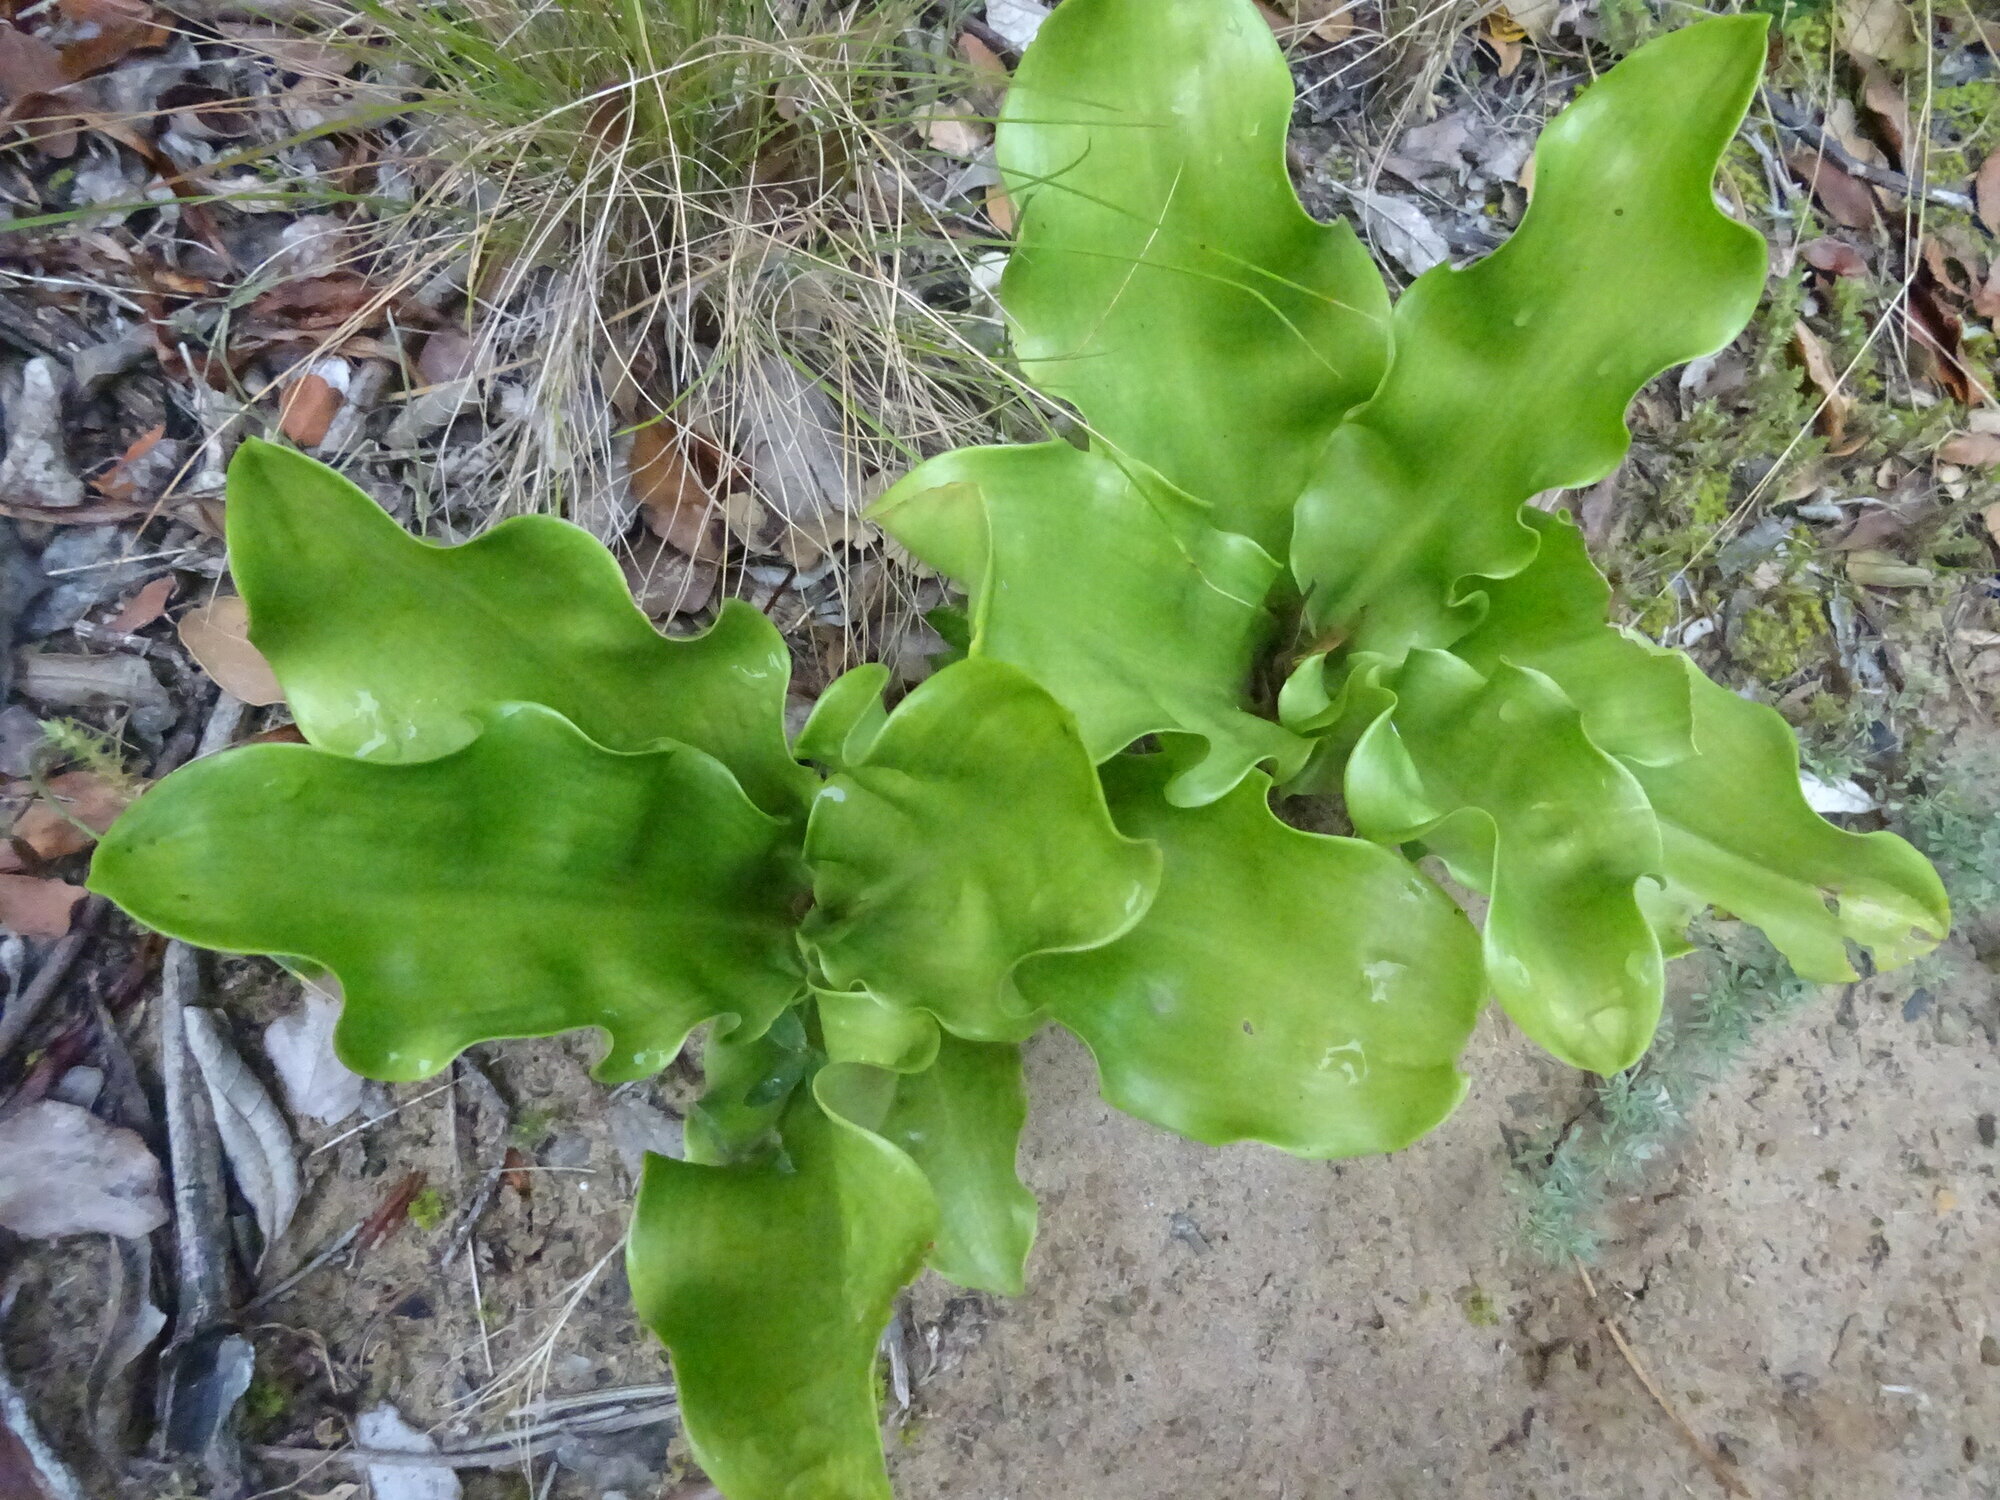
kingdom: Plantae
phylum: Tracheophyta
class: Liliopsida
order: Asparagales
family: Amaryllidaceae
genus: Scadoxus
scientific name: Scadoxus puniceus
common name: Royal-paintbrush
